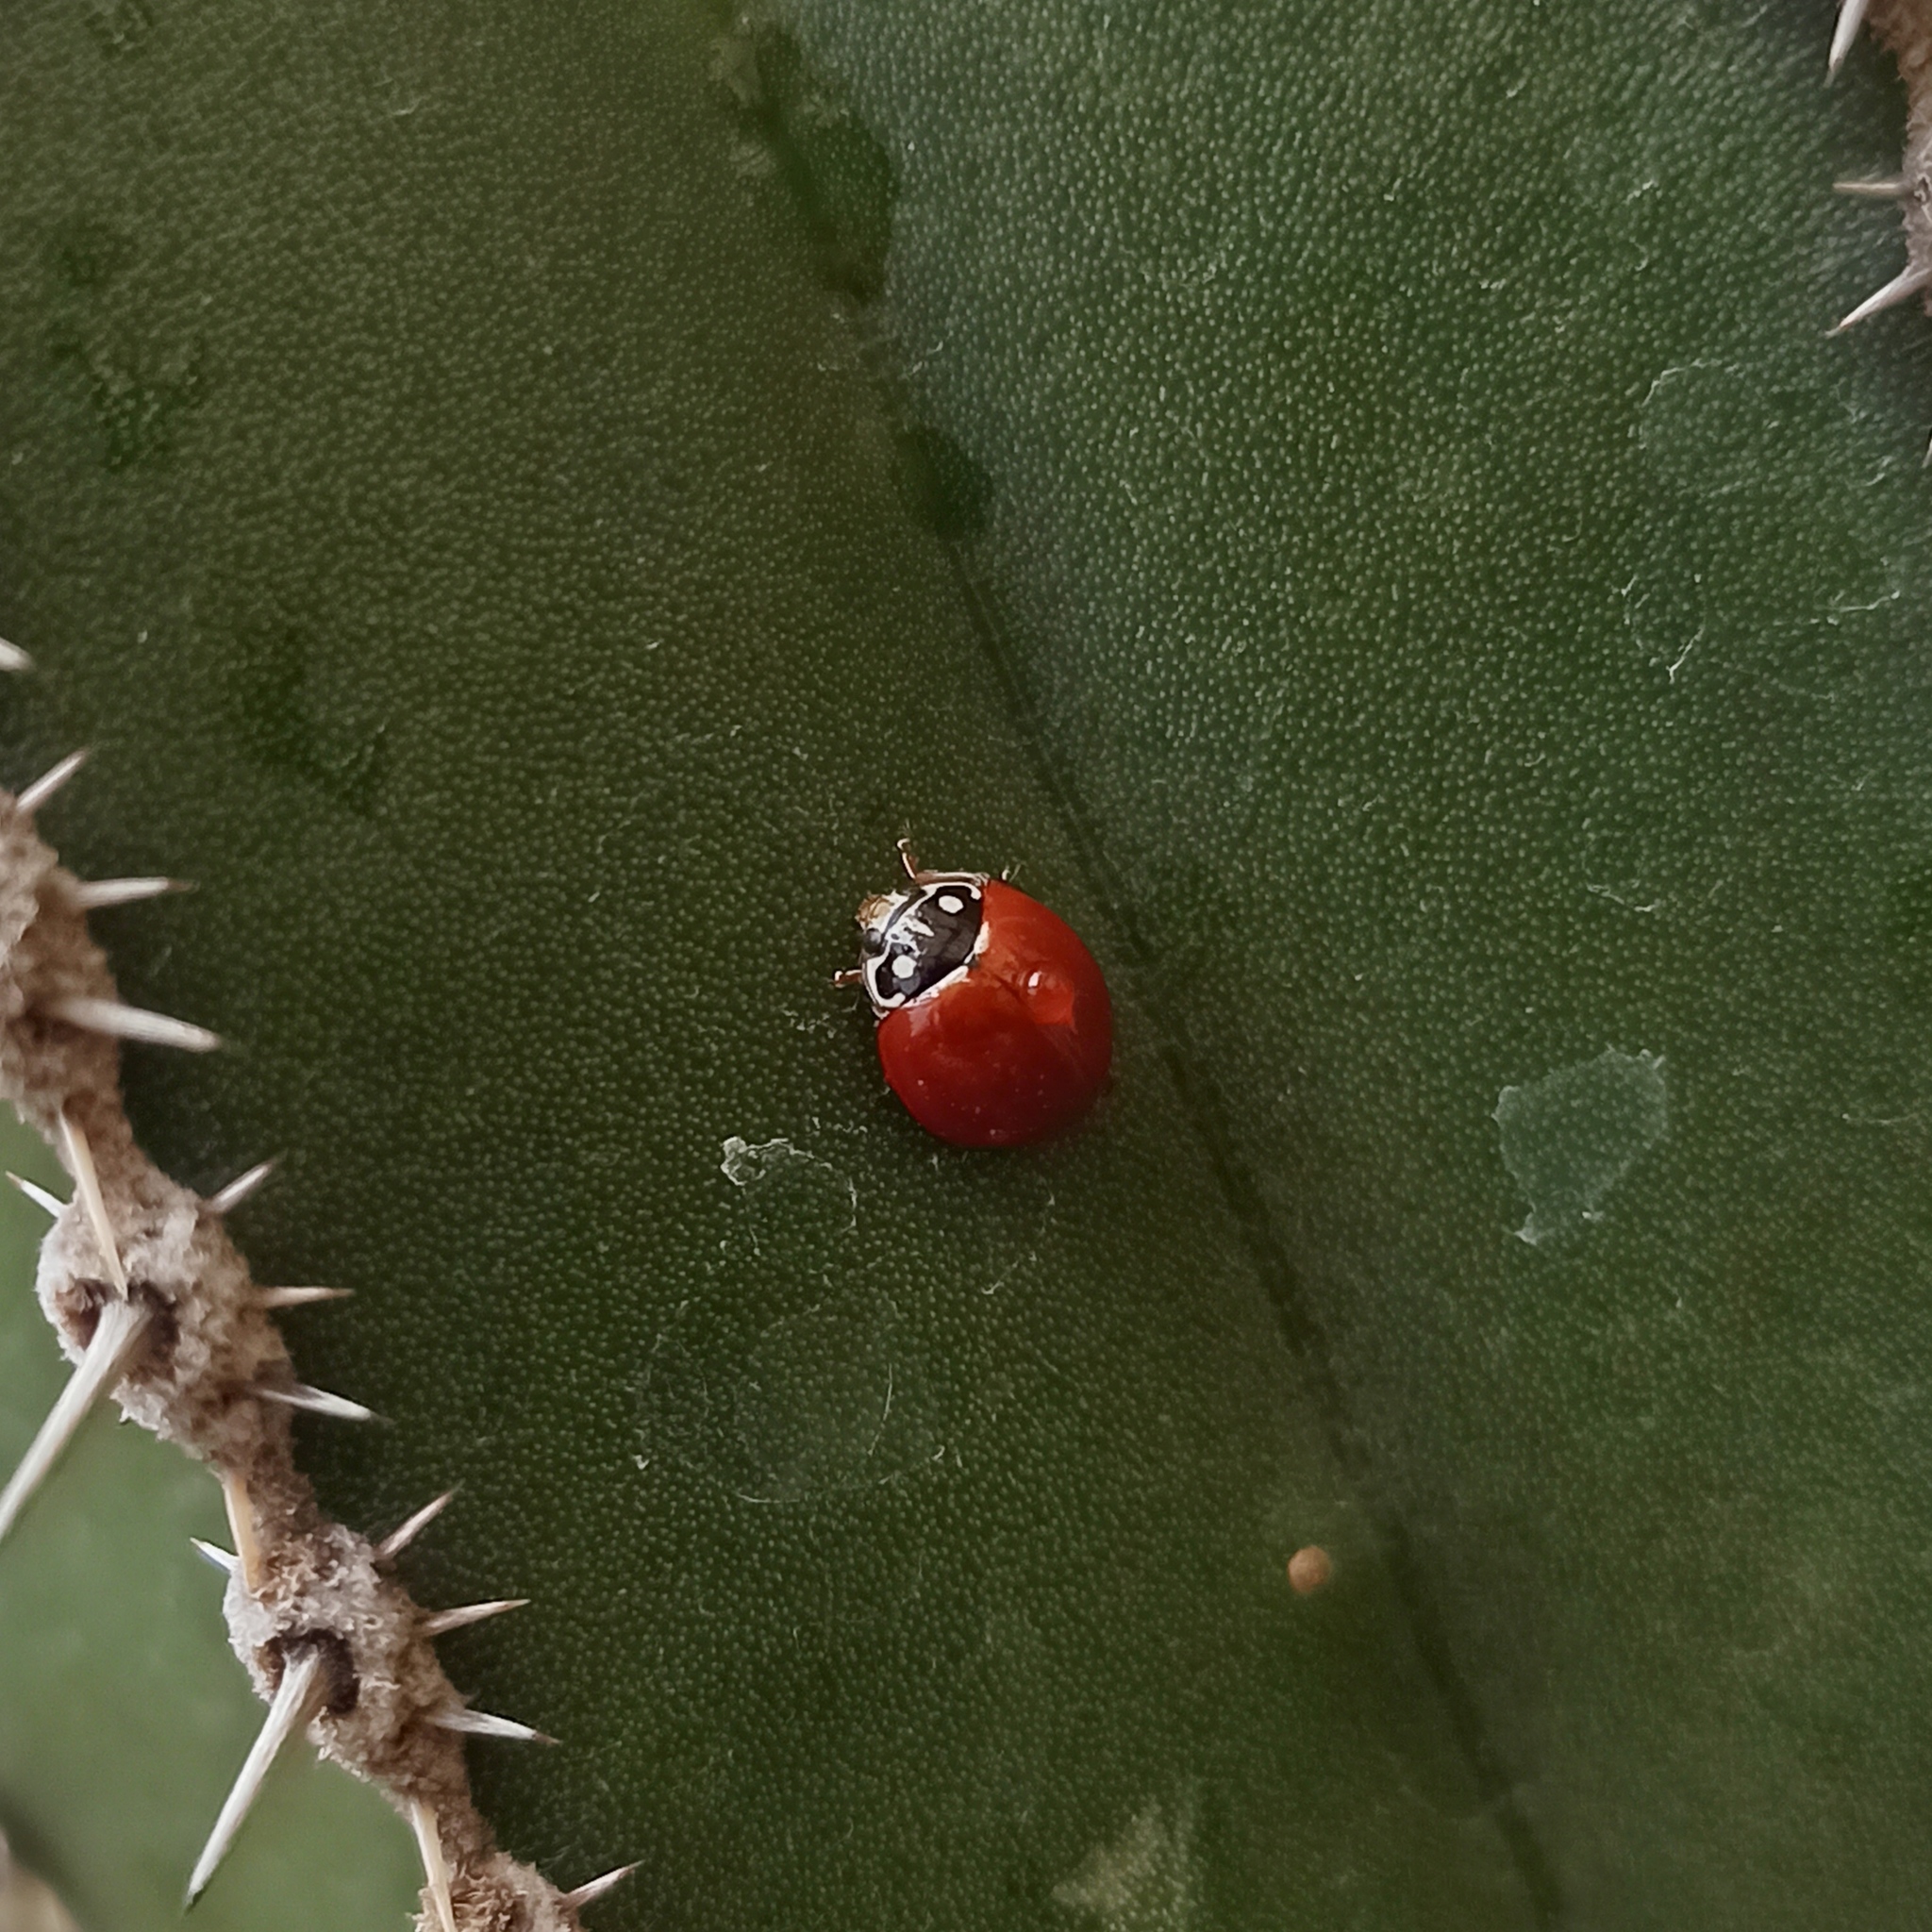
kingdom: Animalia
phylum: Arthropoda
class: Insecta
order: Coleoptera
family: Coccinellidae
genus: Cycloneda
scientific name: Cycloneda sanguinea
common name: Ladybird beetle
